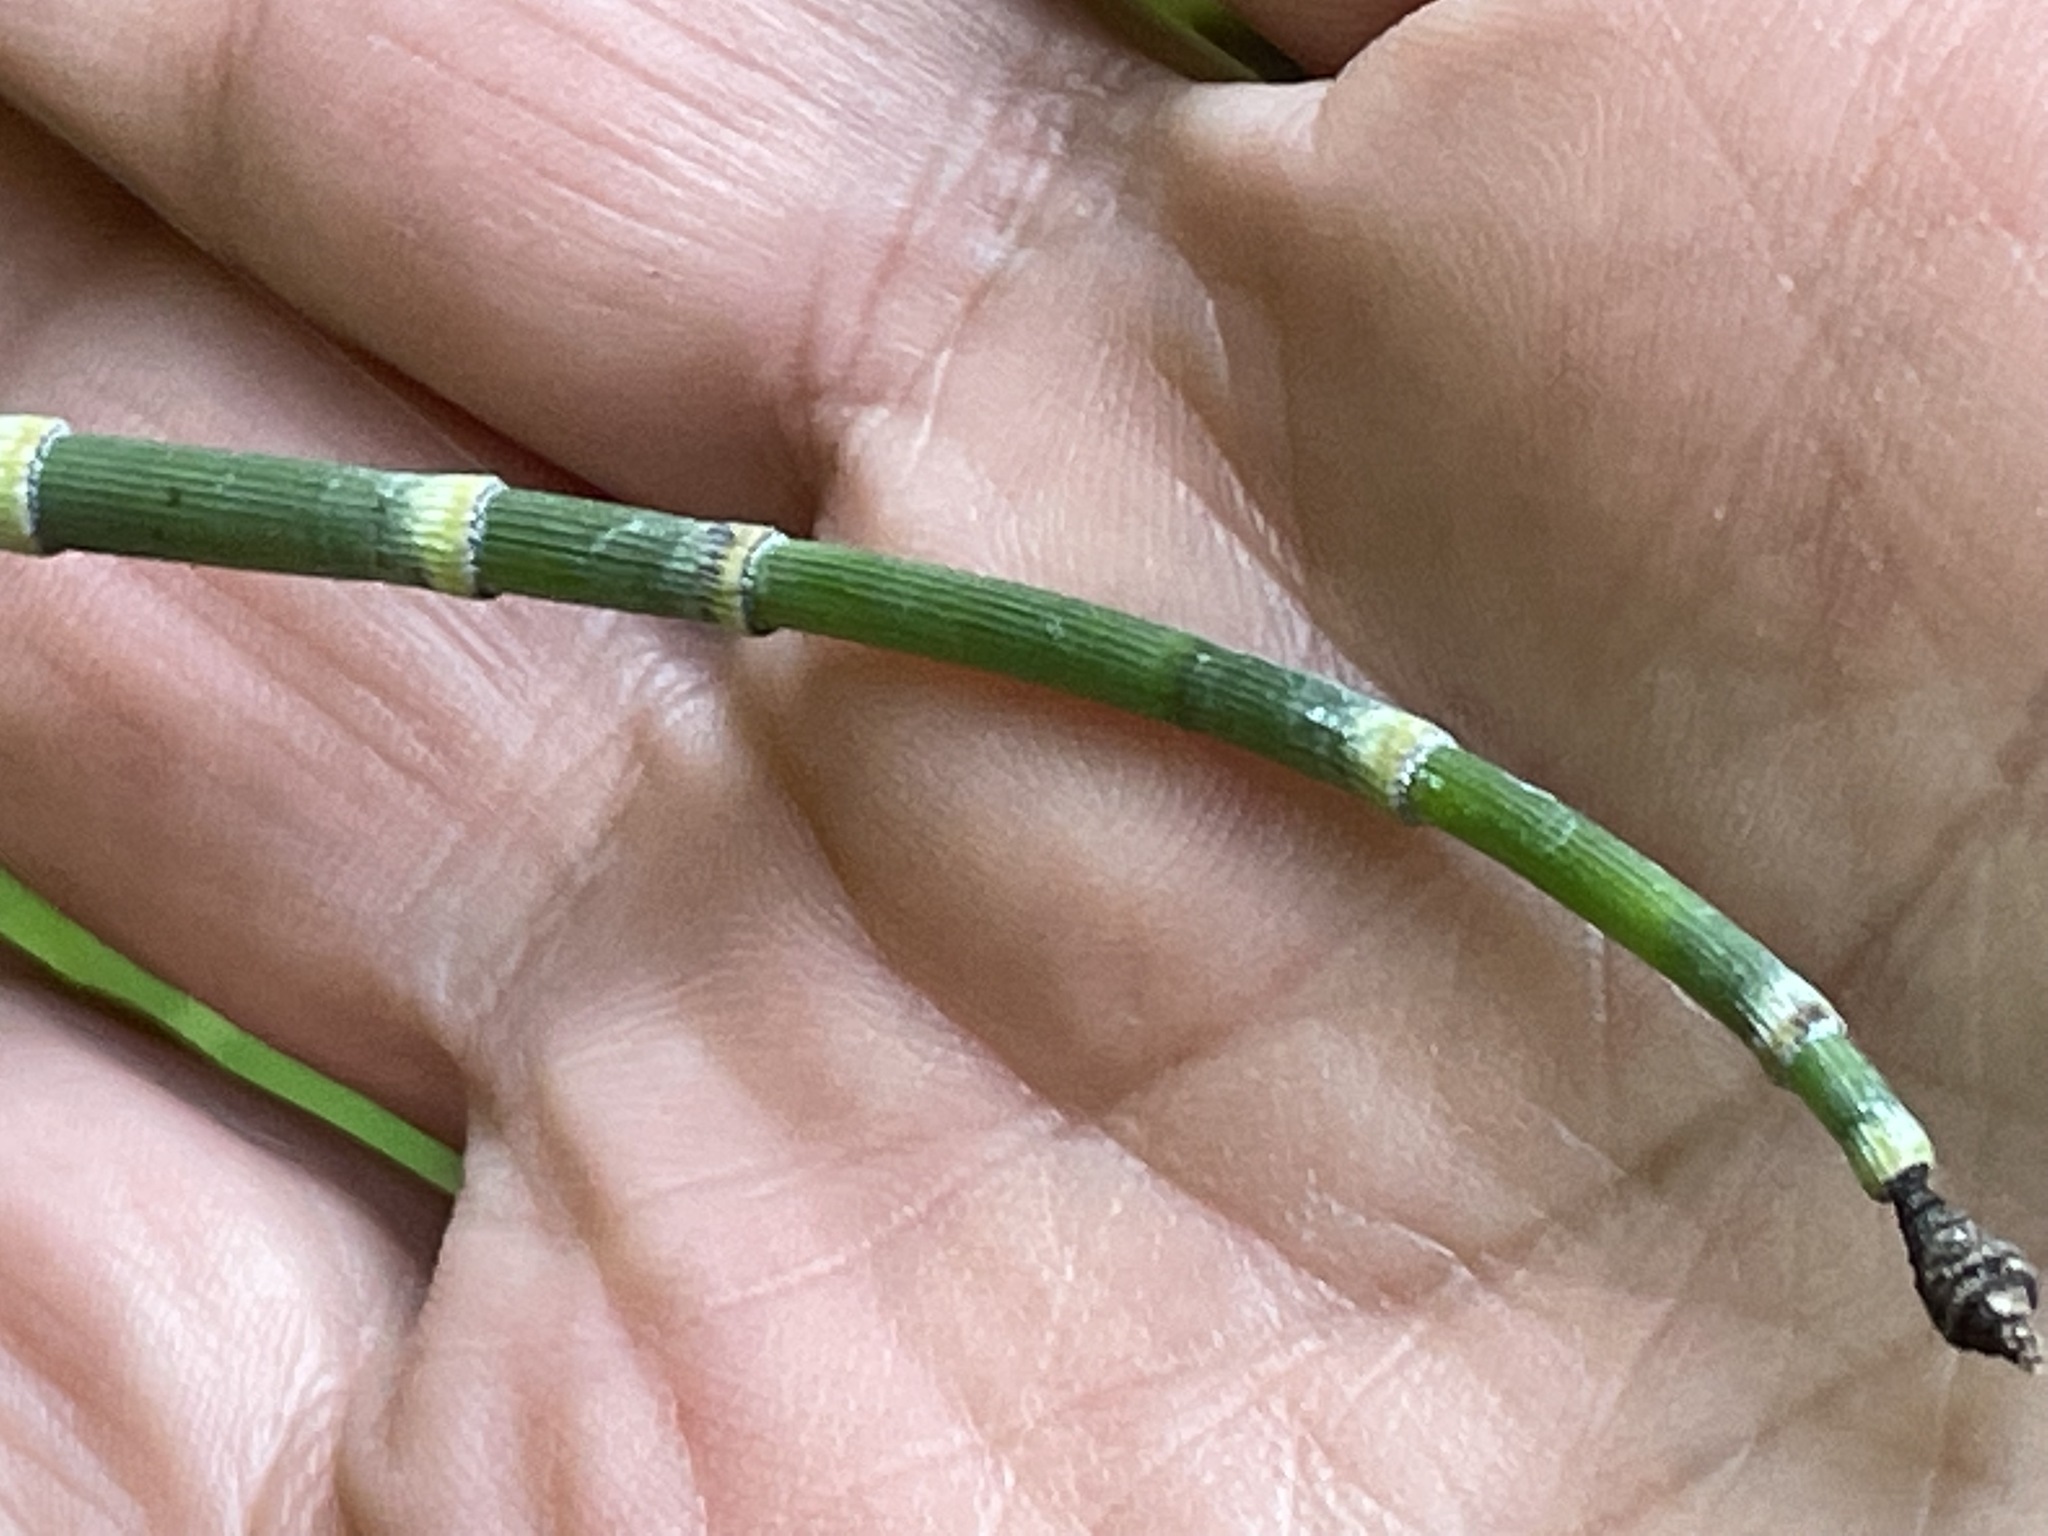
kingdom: Plantae
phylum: Tracheophyta
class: Polypodiopsida
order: Equisetales
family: Equisetaceae
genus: Equisetum
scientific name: Equisetum hyemale
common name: Rough horsetail
